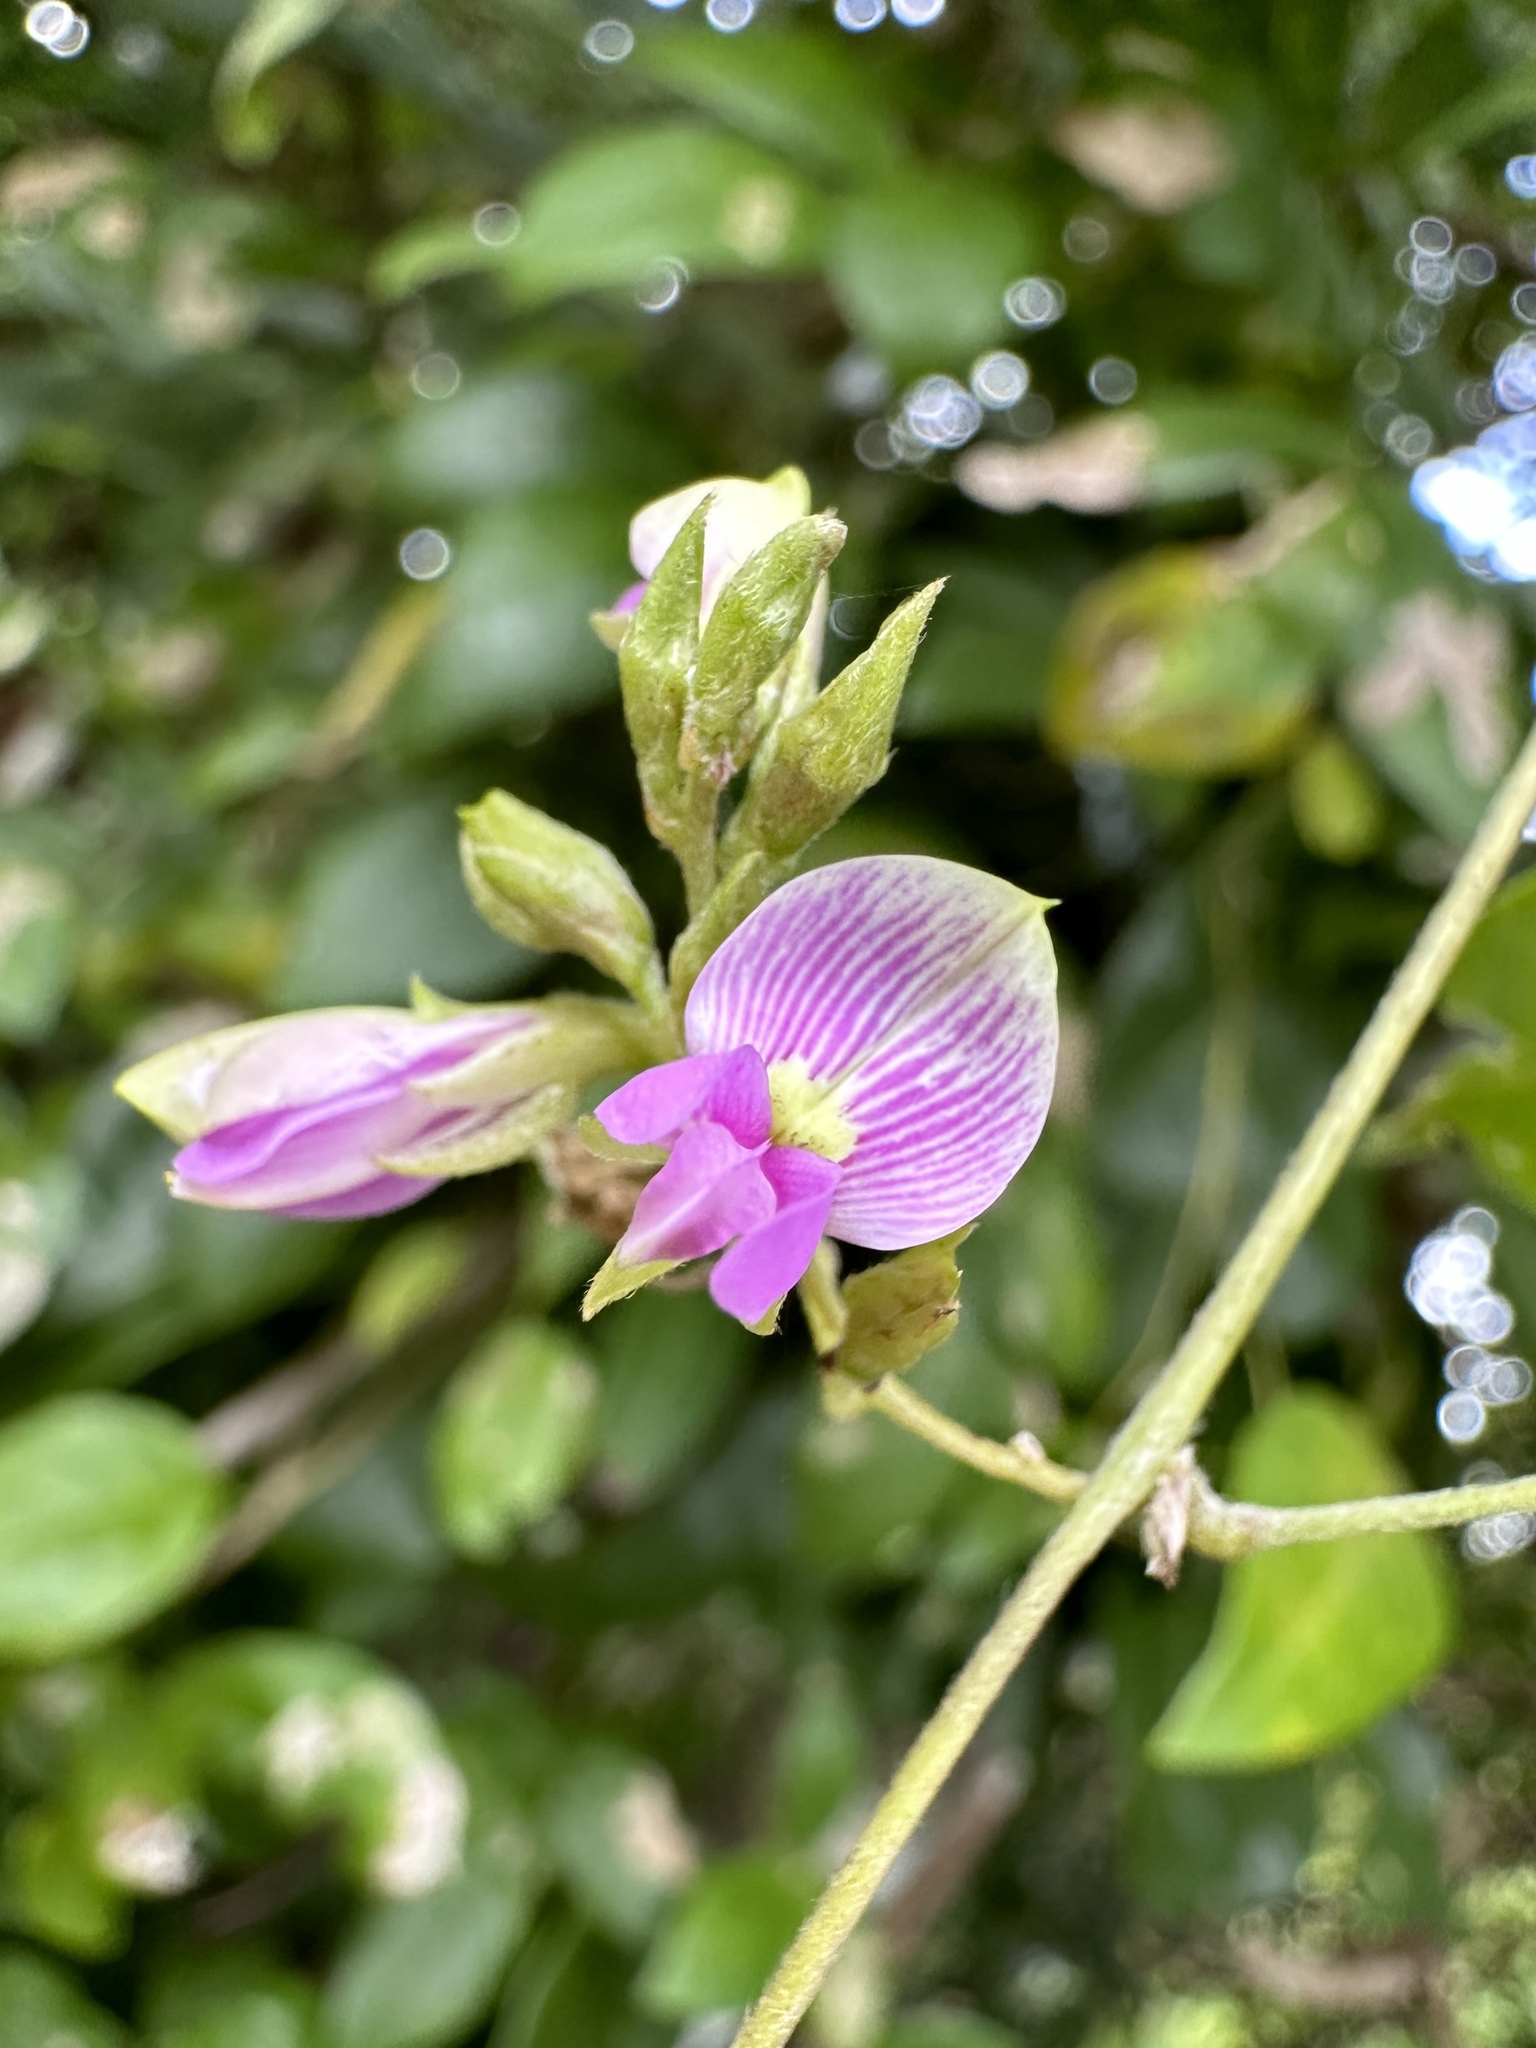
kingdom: Plantae
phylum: Tracheophyta
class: Magnoliopsida
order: Fabales
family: Fabaceae
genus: Galactia
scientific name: Galactia striata
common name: Florida hammock milkpea
